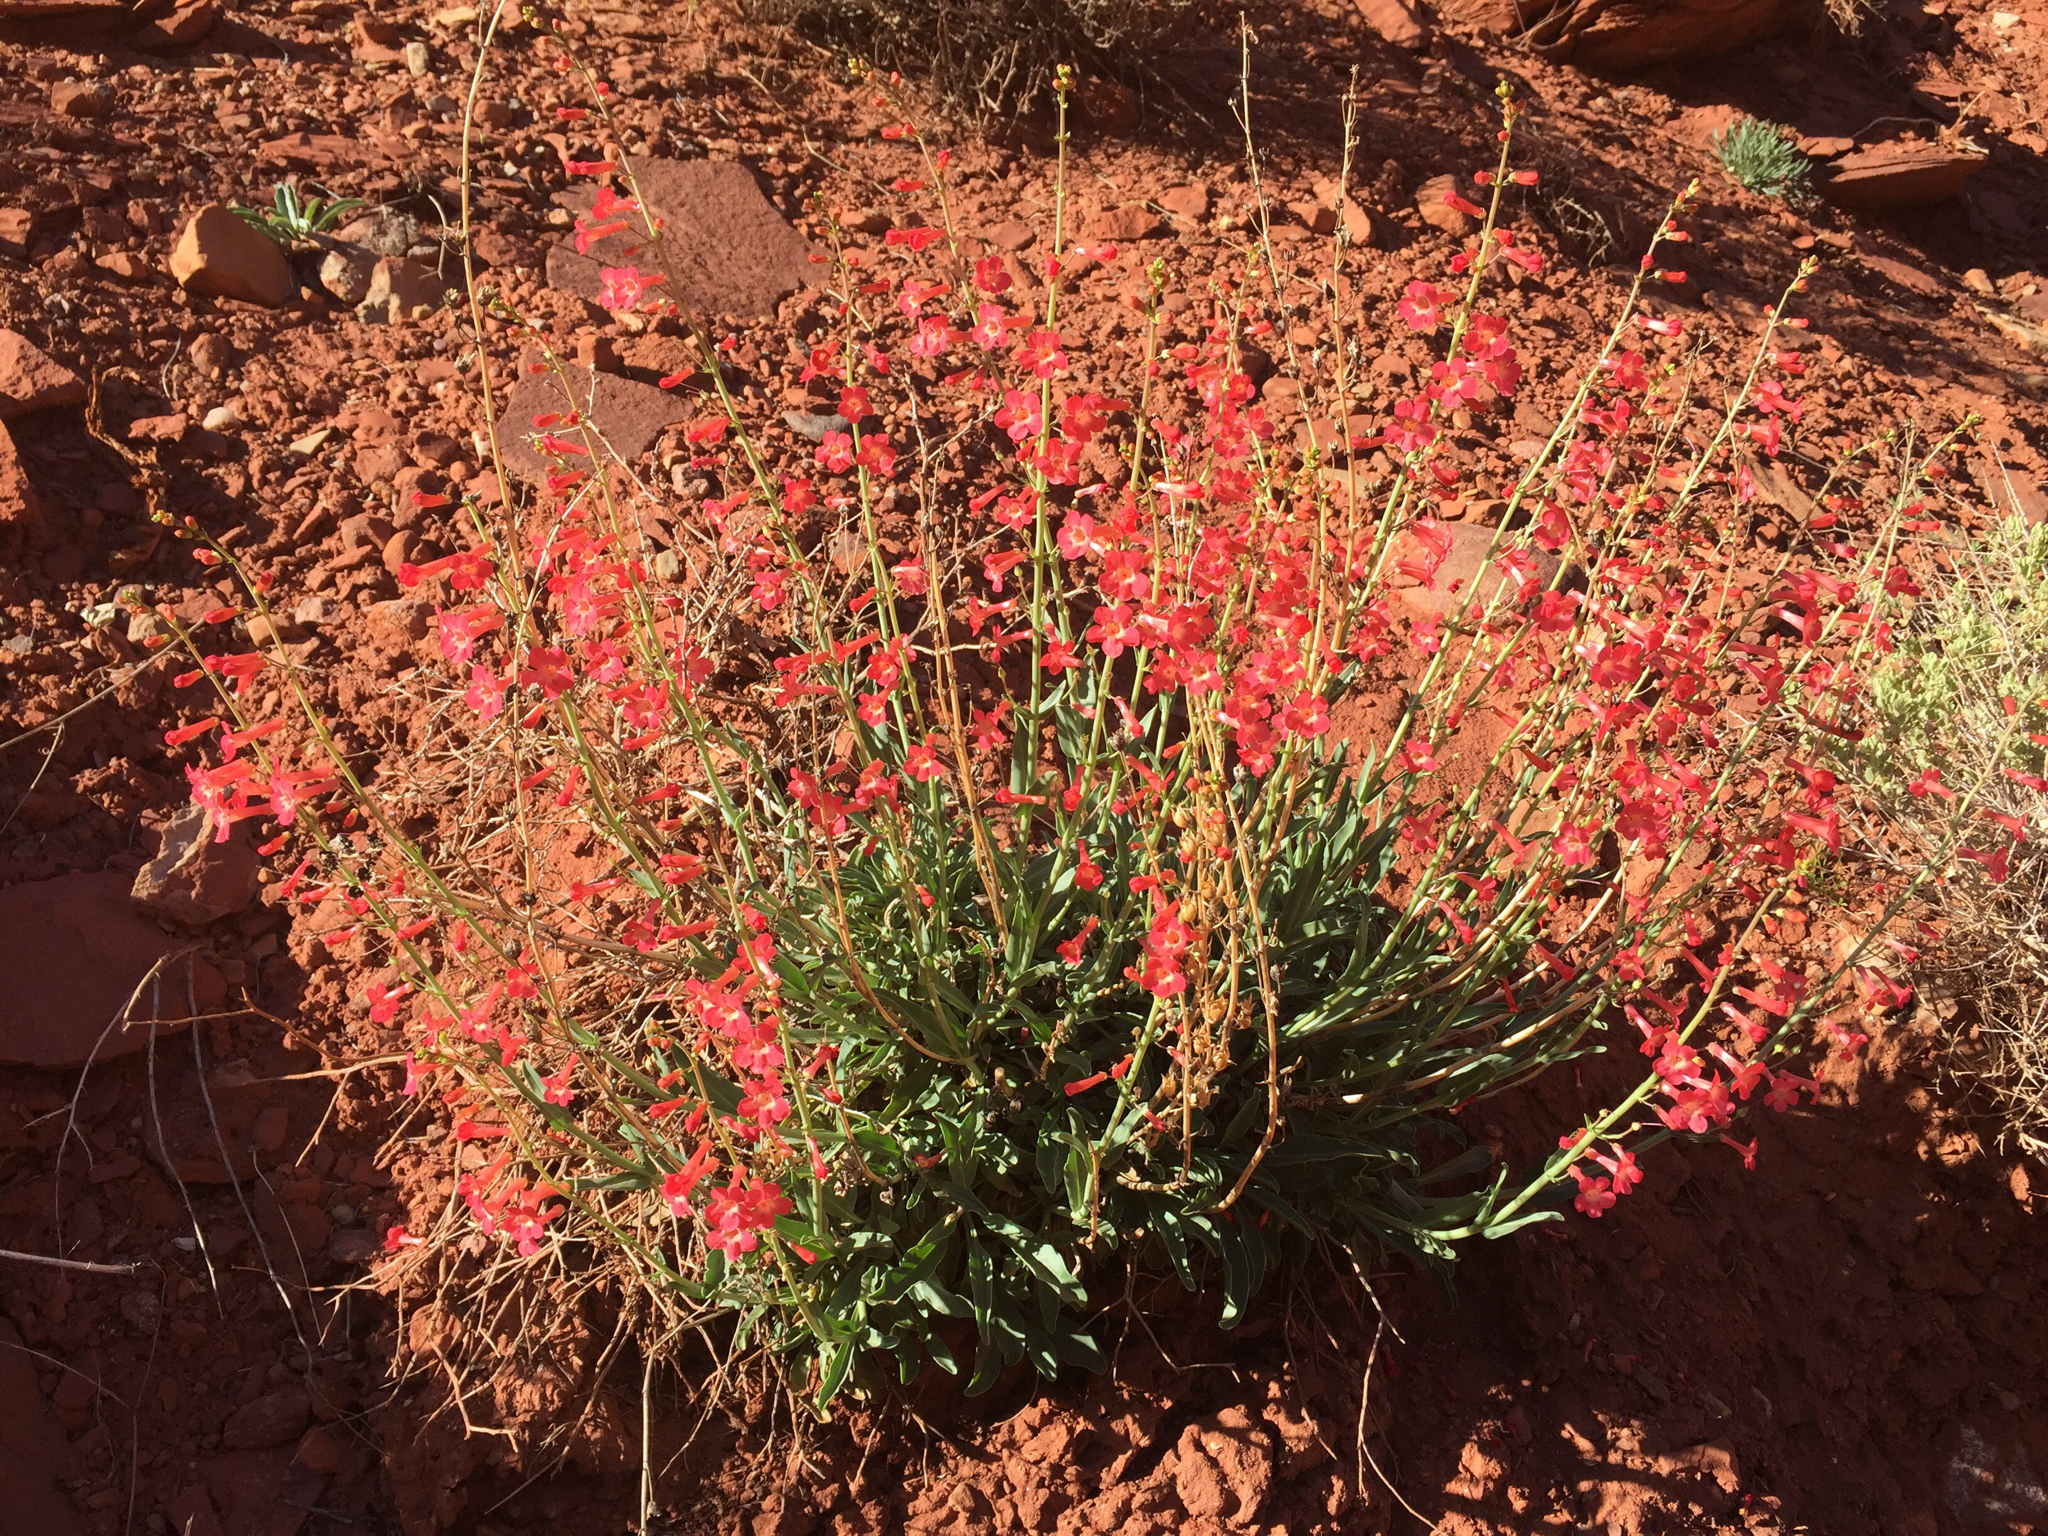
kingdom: Plantae
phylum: Tracheophyta
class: Magnoliopsida
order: Lamiales
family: Plantaginaceae
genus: Penstemon
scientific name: Penstemon utahensis
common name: Utah penstemon
